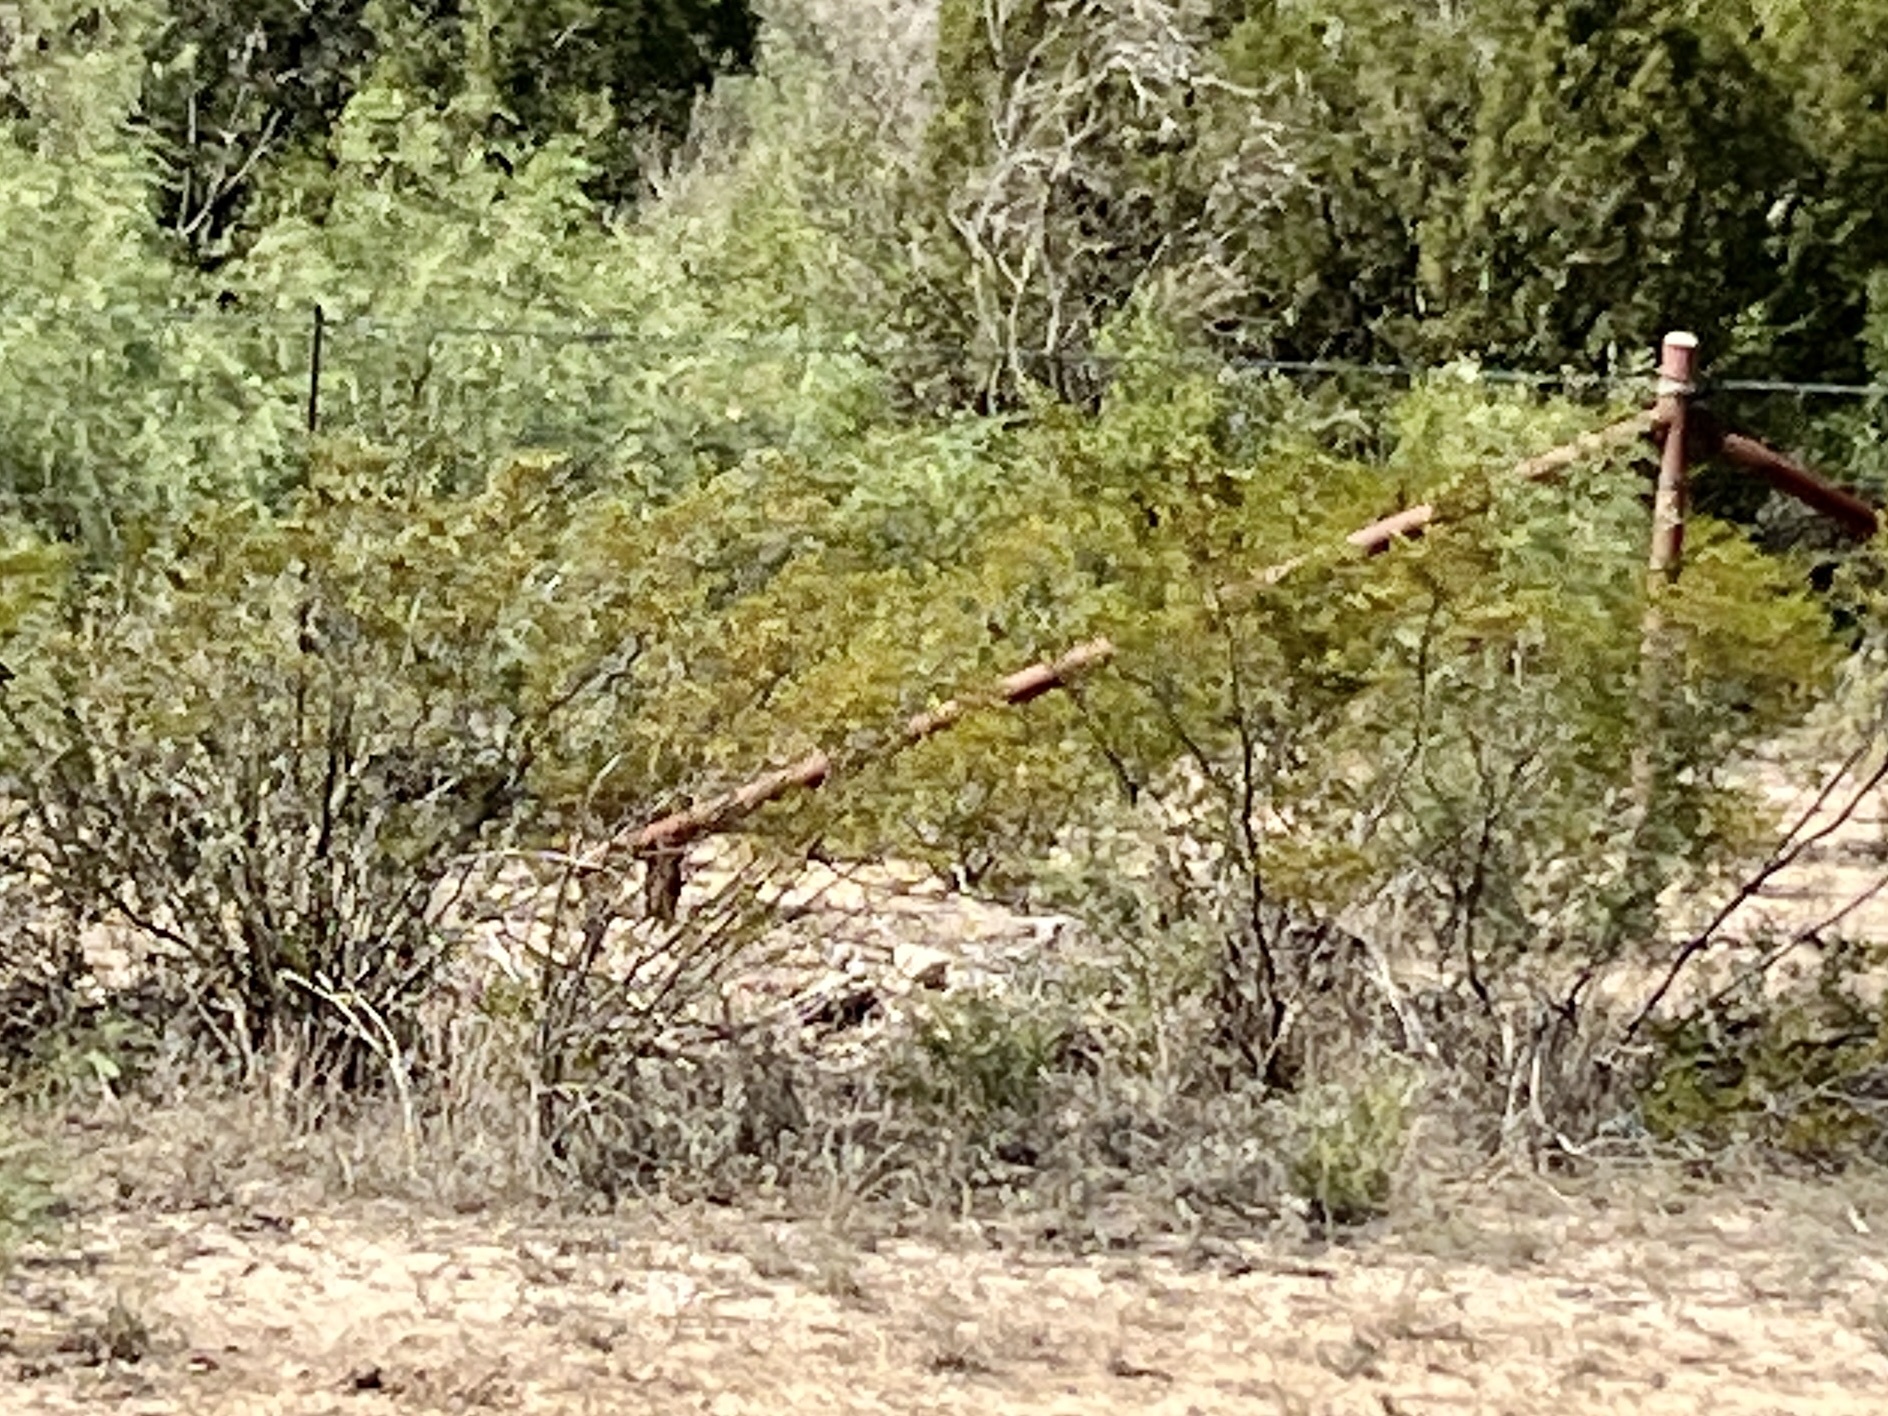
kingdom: Plantae
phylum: Tracheophyta
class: Magnoliopsida
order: Zygophyllales
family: Zygophyllaceae
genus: Larrea
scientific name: Larrea tridentata
